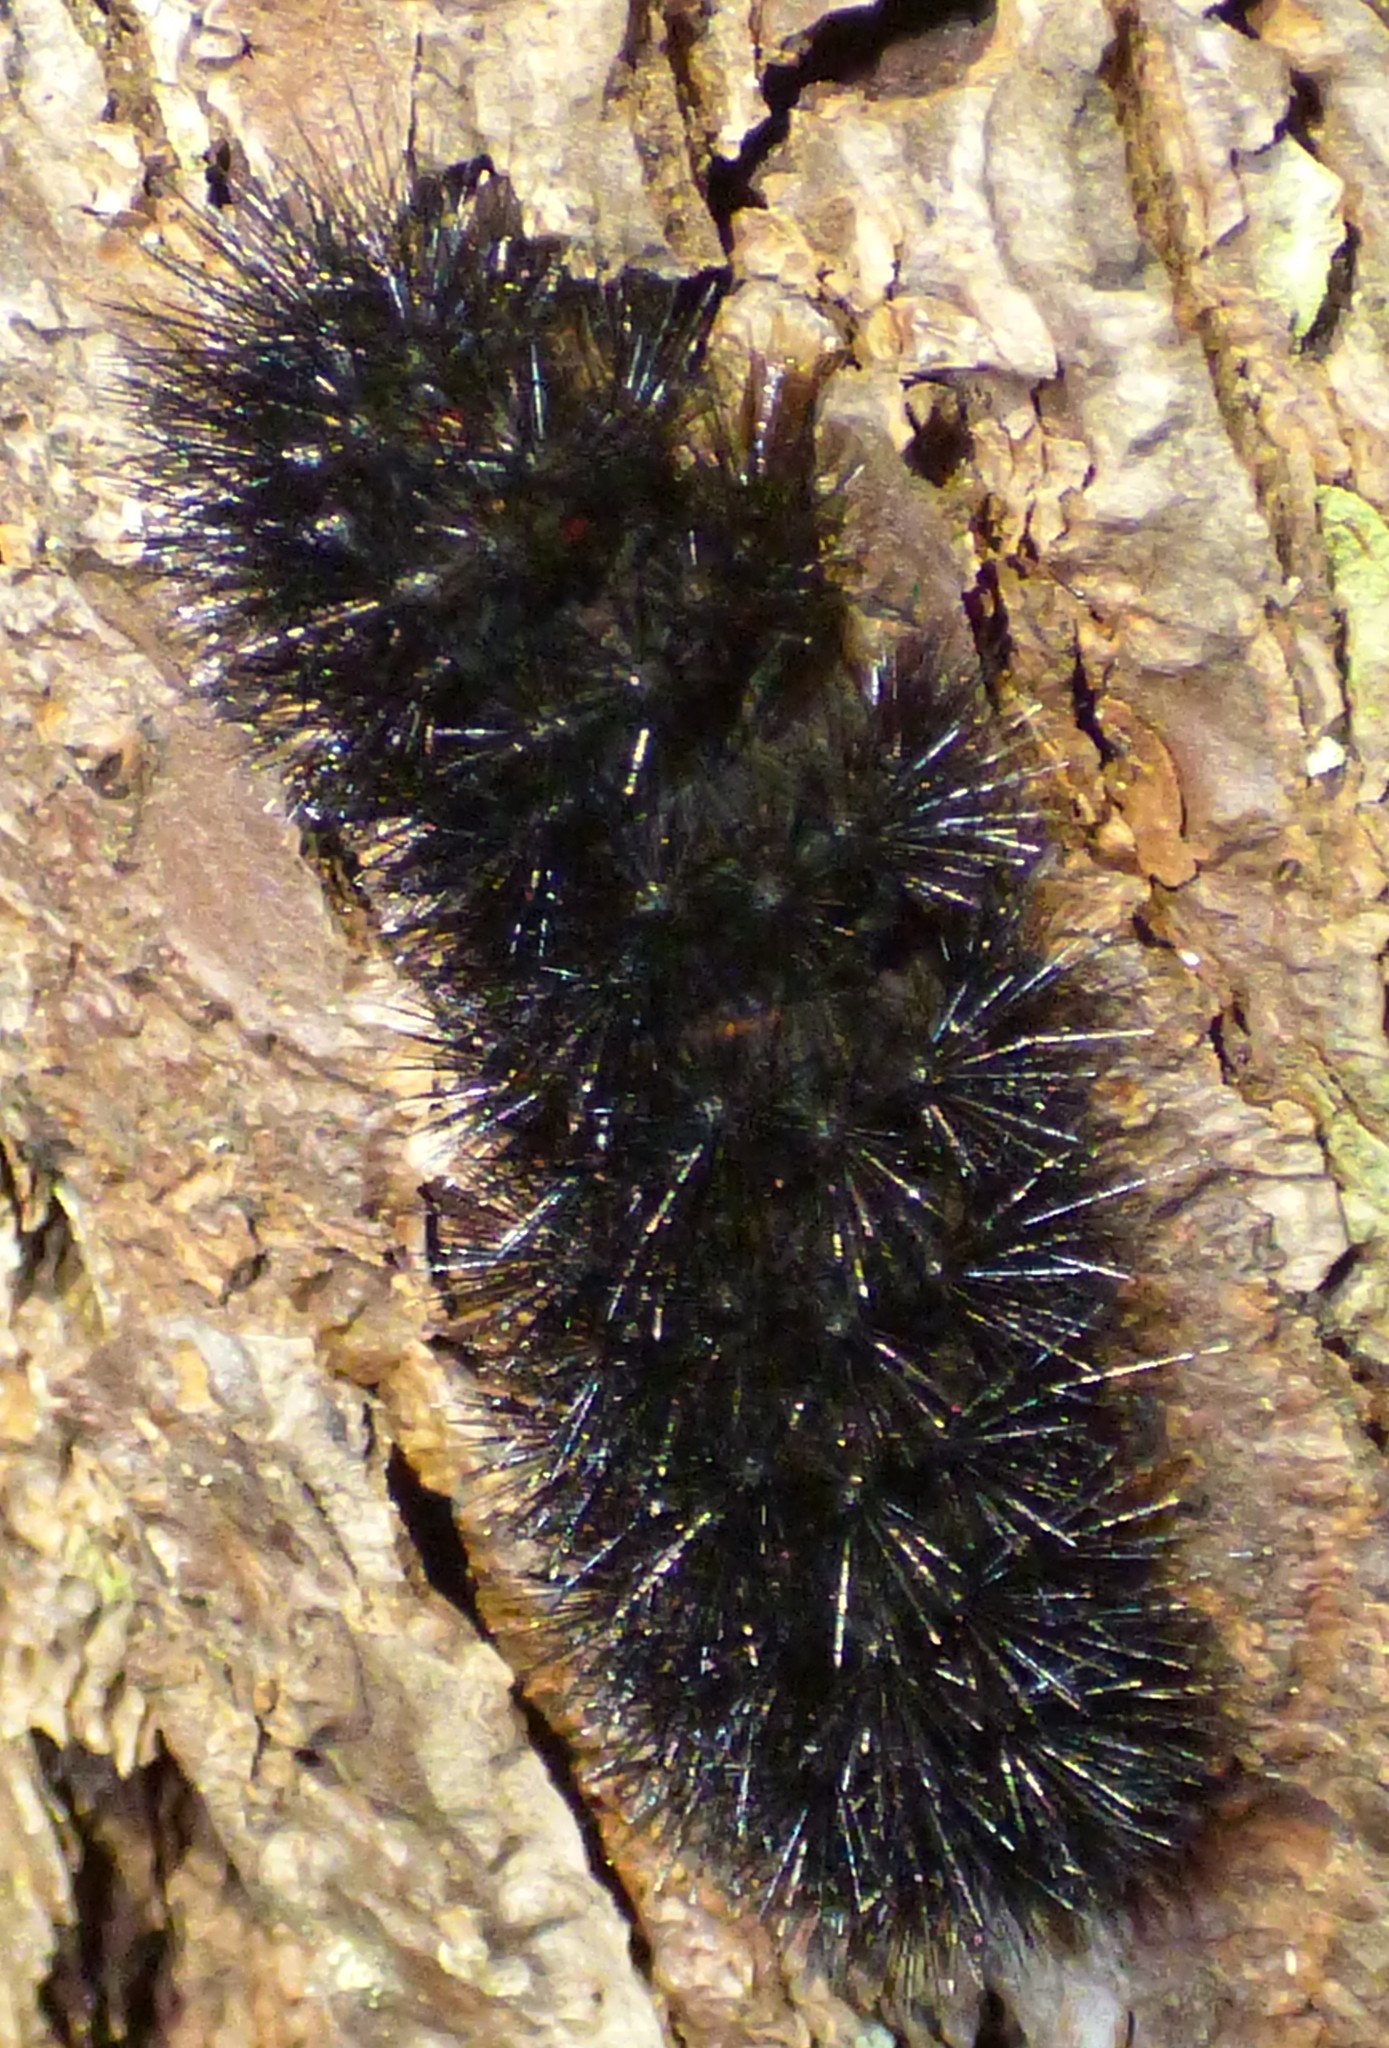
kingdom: Animalia
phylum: Arthropoda
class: Insecta
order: Lepidoptera
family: Erebidae
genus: Hypercompe
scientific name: Hypercompe scribonia
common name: Giant leopard moth
